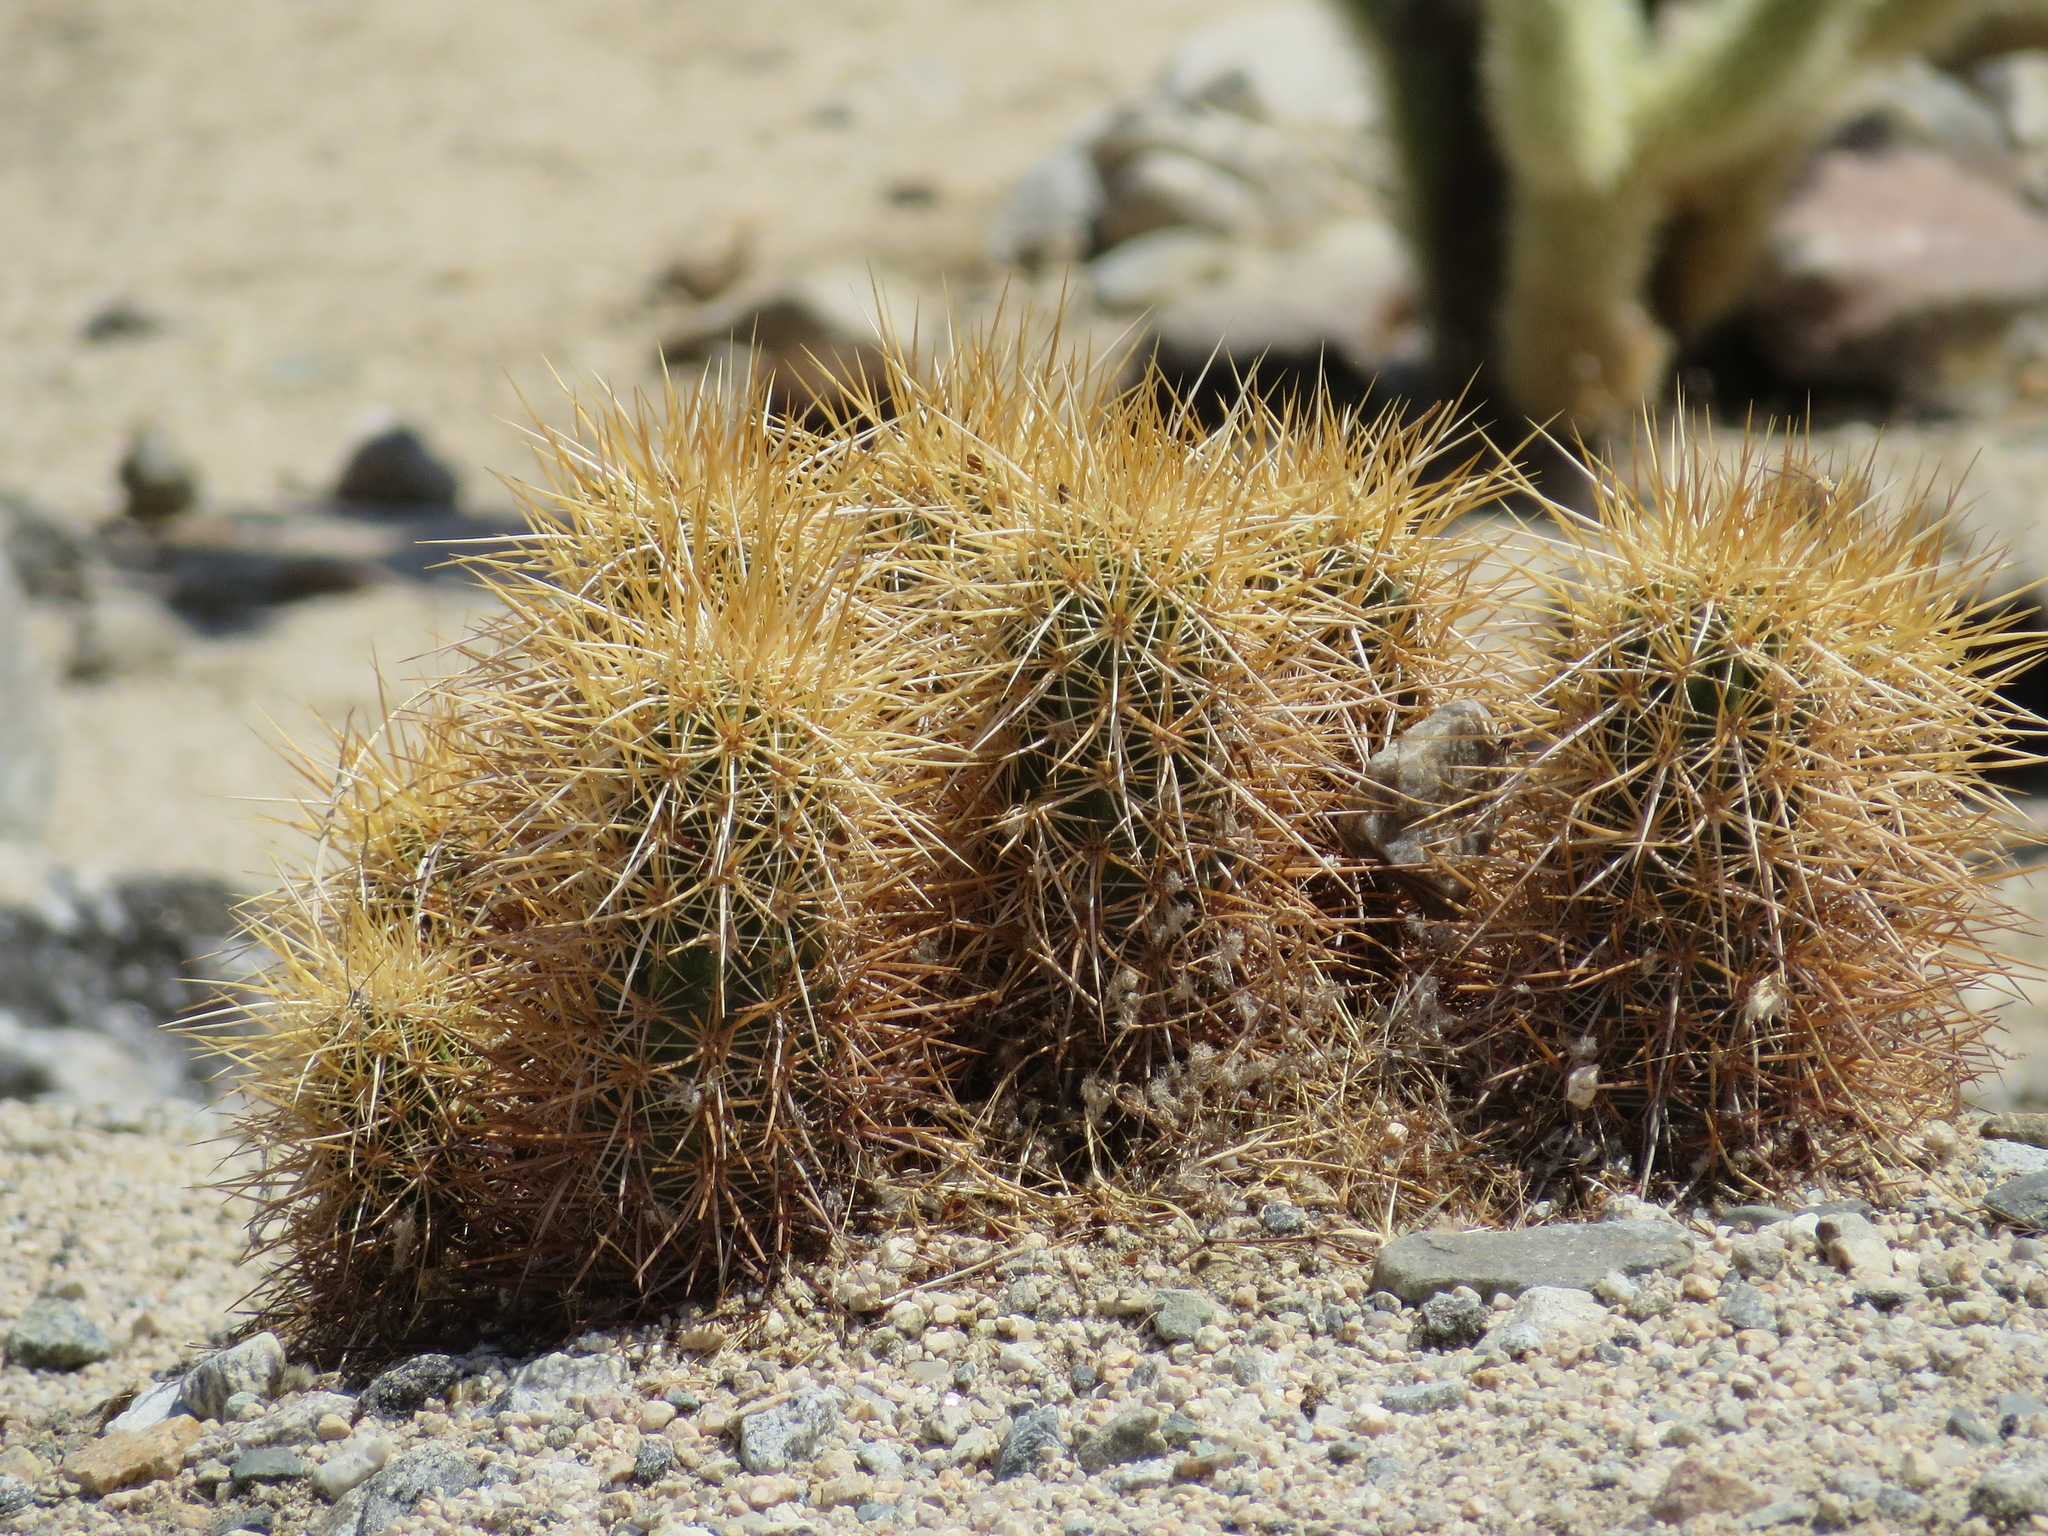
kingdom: Plantae
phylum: Tracheophyta
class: Magnoliopsida
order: Caryophyllales
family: Cactaceae
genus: Echinocereus
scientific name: Echinocereus engelmannii
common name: Engelmann's hedgehog cactus
